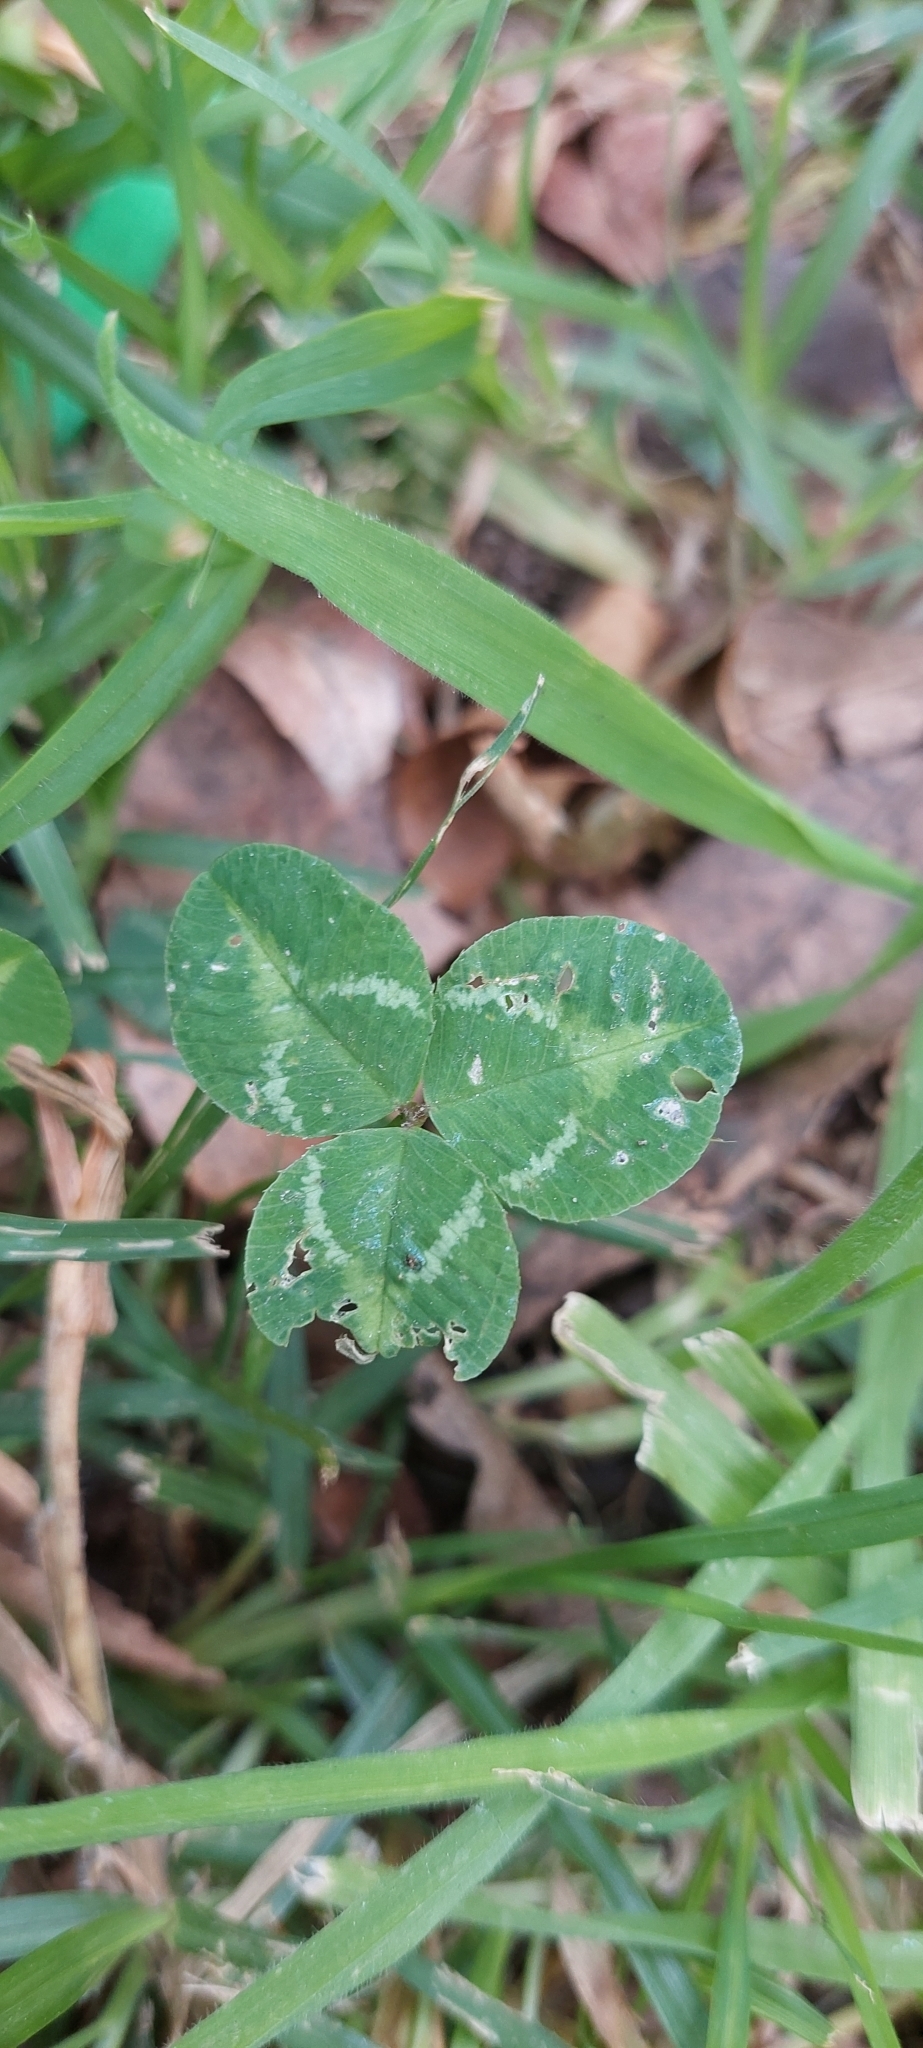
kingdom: Plantae
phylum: Tracheophyta
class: Magnoliopsida
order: Fabales
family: Fabaceae
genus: Trifolium
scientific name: Trifolium repens
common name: White clover
